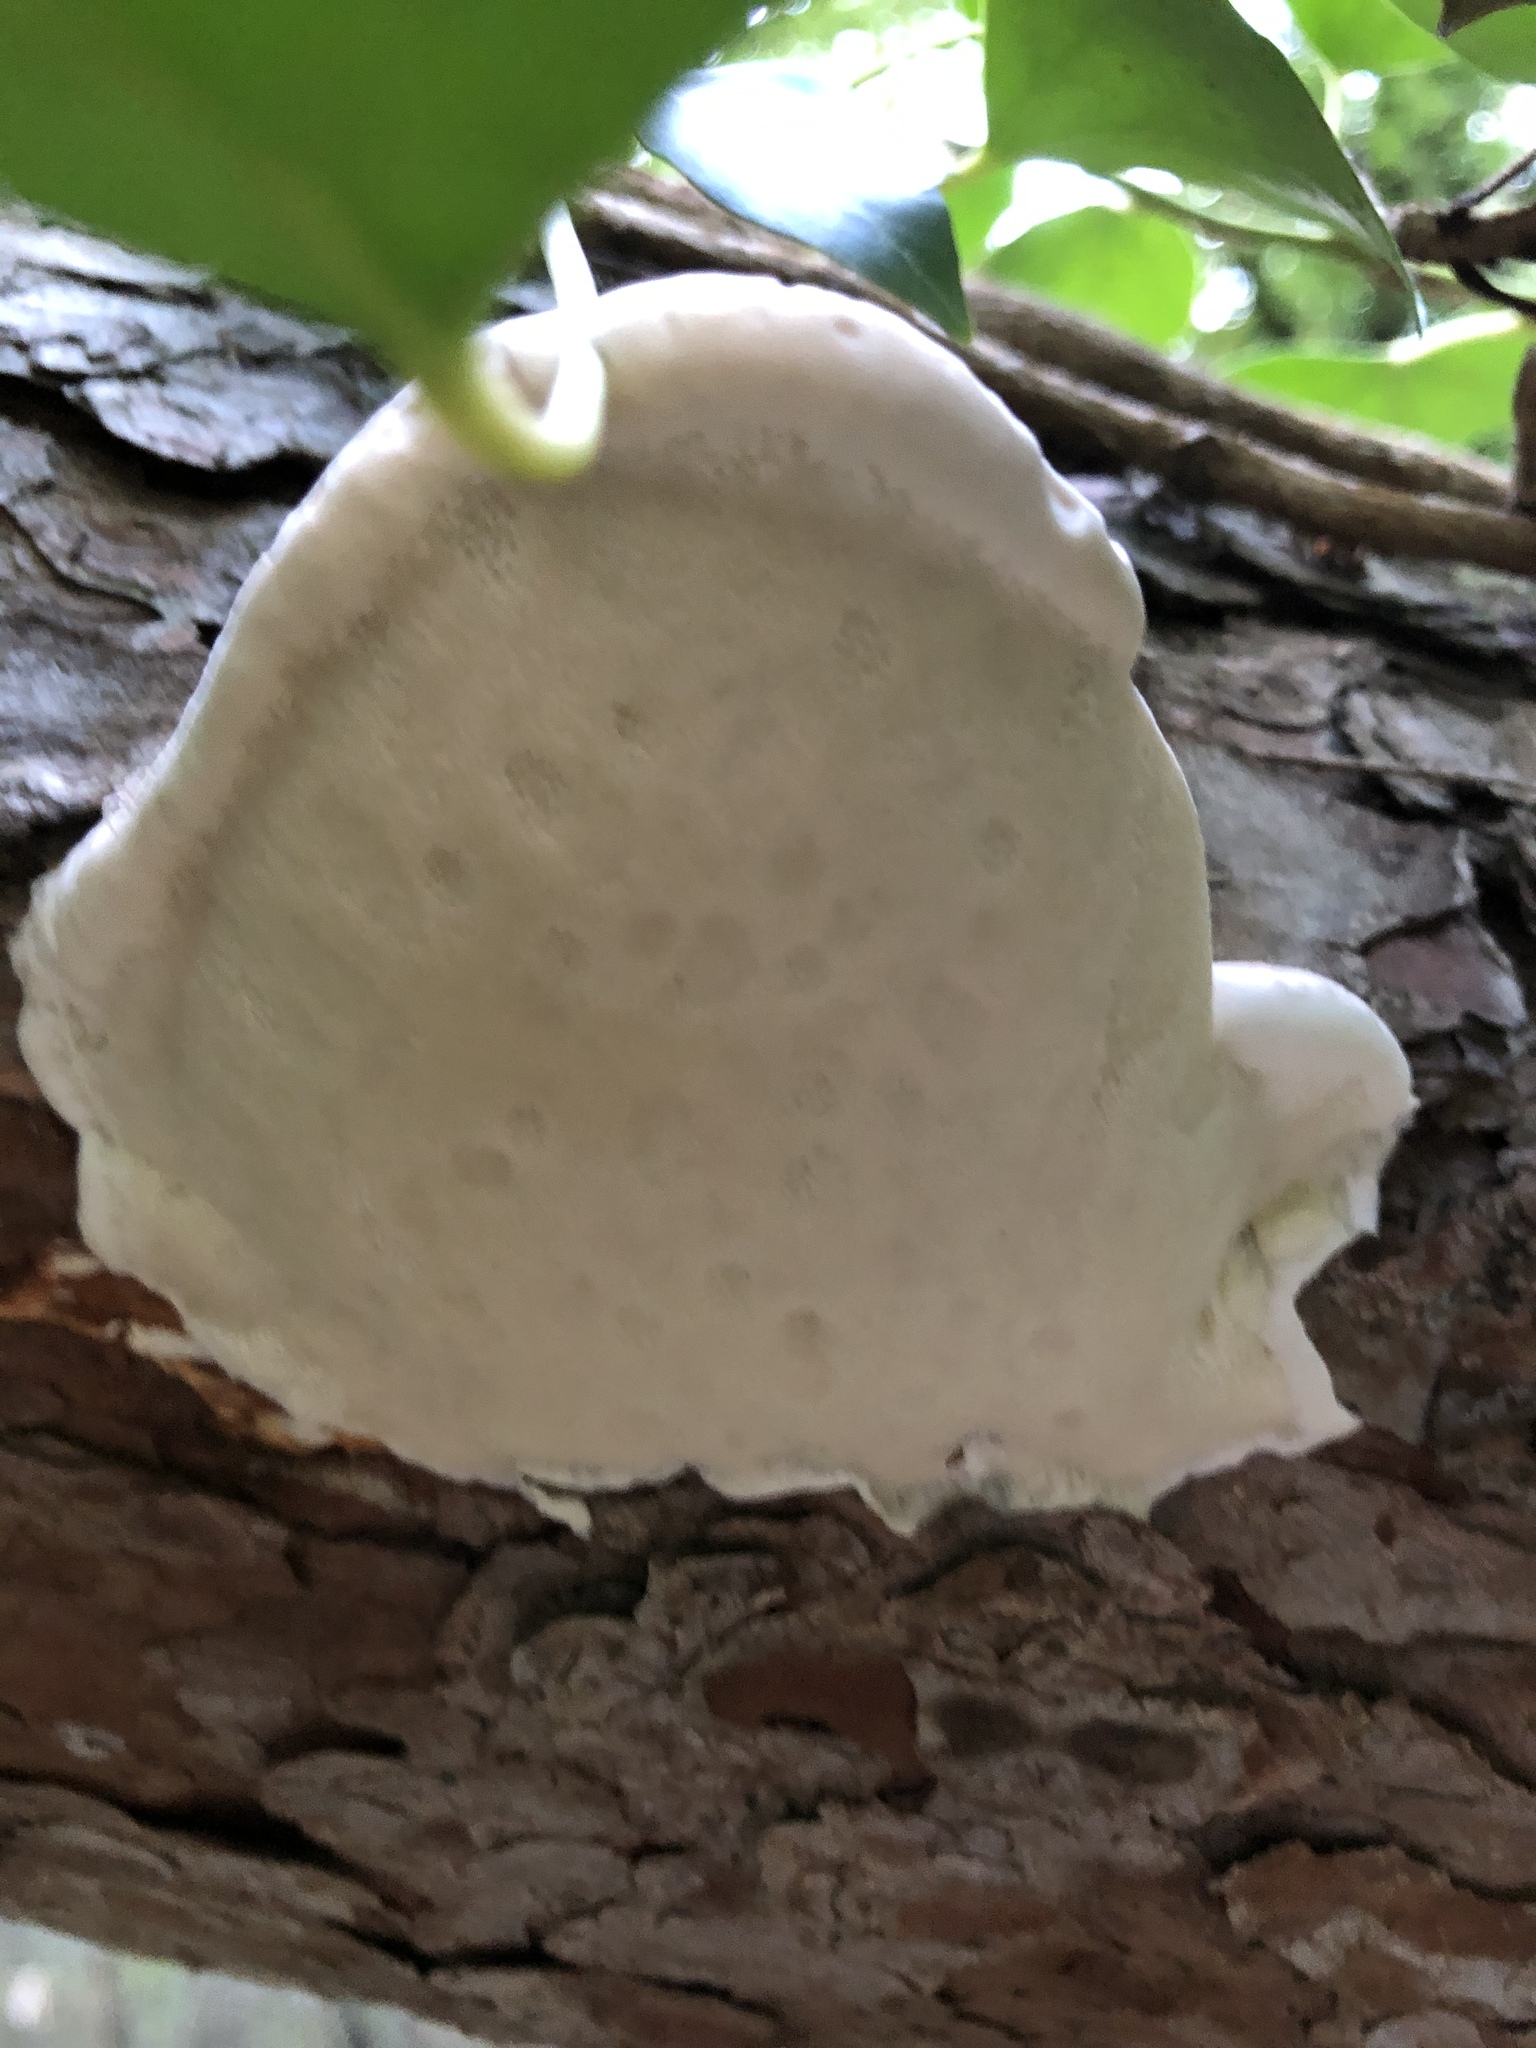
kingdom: Fungi
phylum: Basidiomycota
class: Agaricomycetes
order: Polyporales
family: Fomitopsidaceae
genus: Fomitopsis
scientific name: Fomitopsis pinicola
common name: Red-belted bracket
